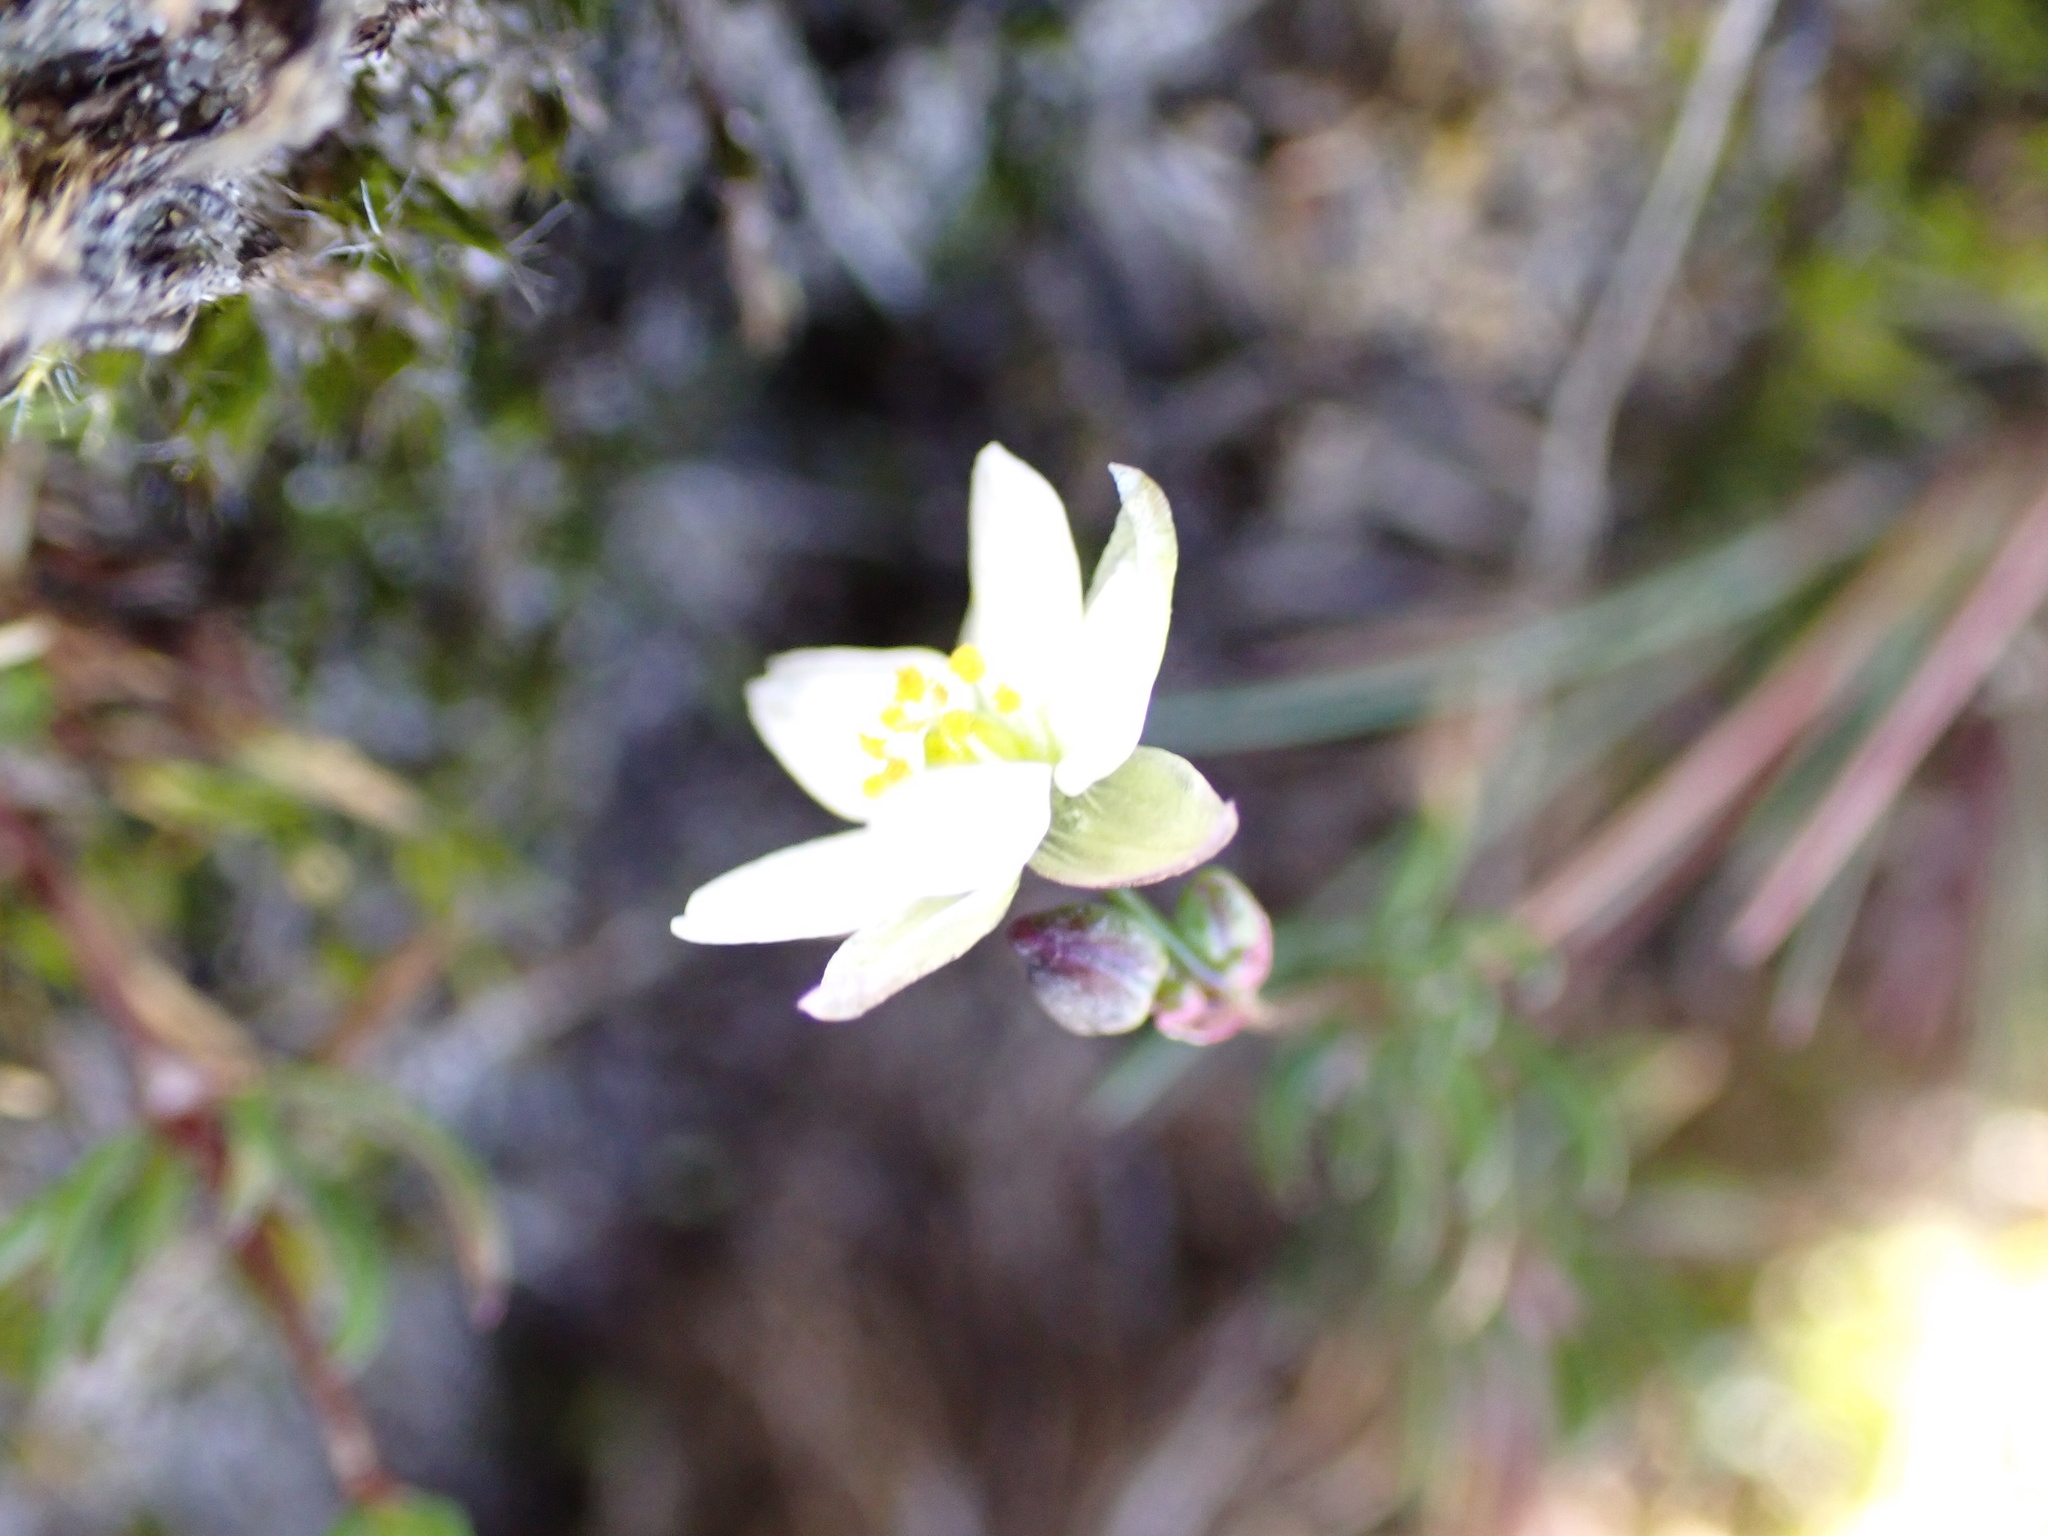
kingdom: Plantae
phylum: Tracheophyta
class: Magnoliopsida
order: Caryophyllales
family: Caryophyllaceae
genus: Spergula
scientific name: Spergula morisonii
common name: Pearlwort spurrey
